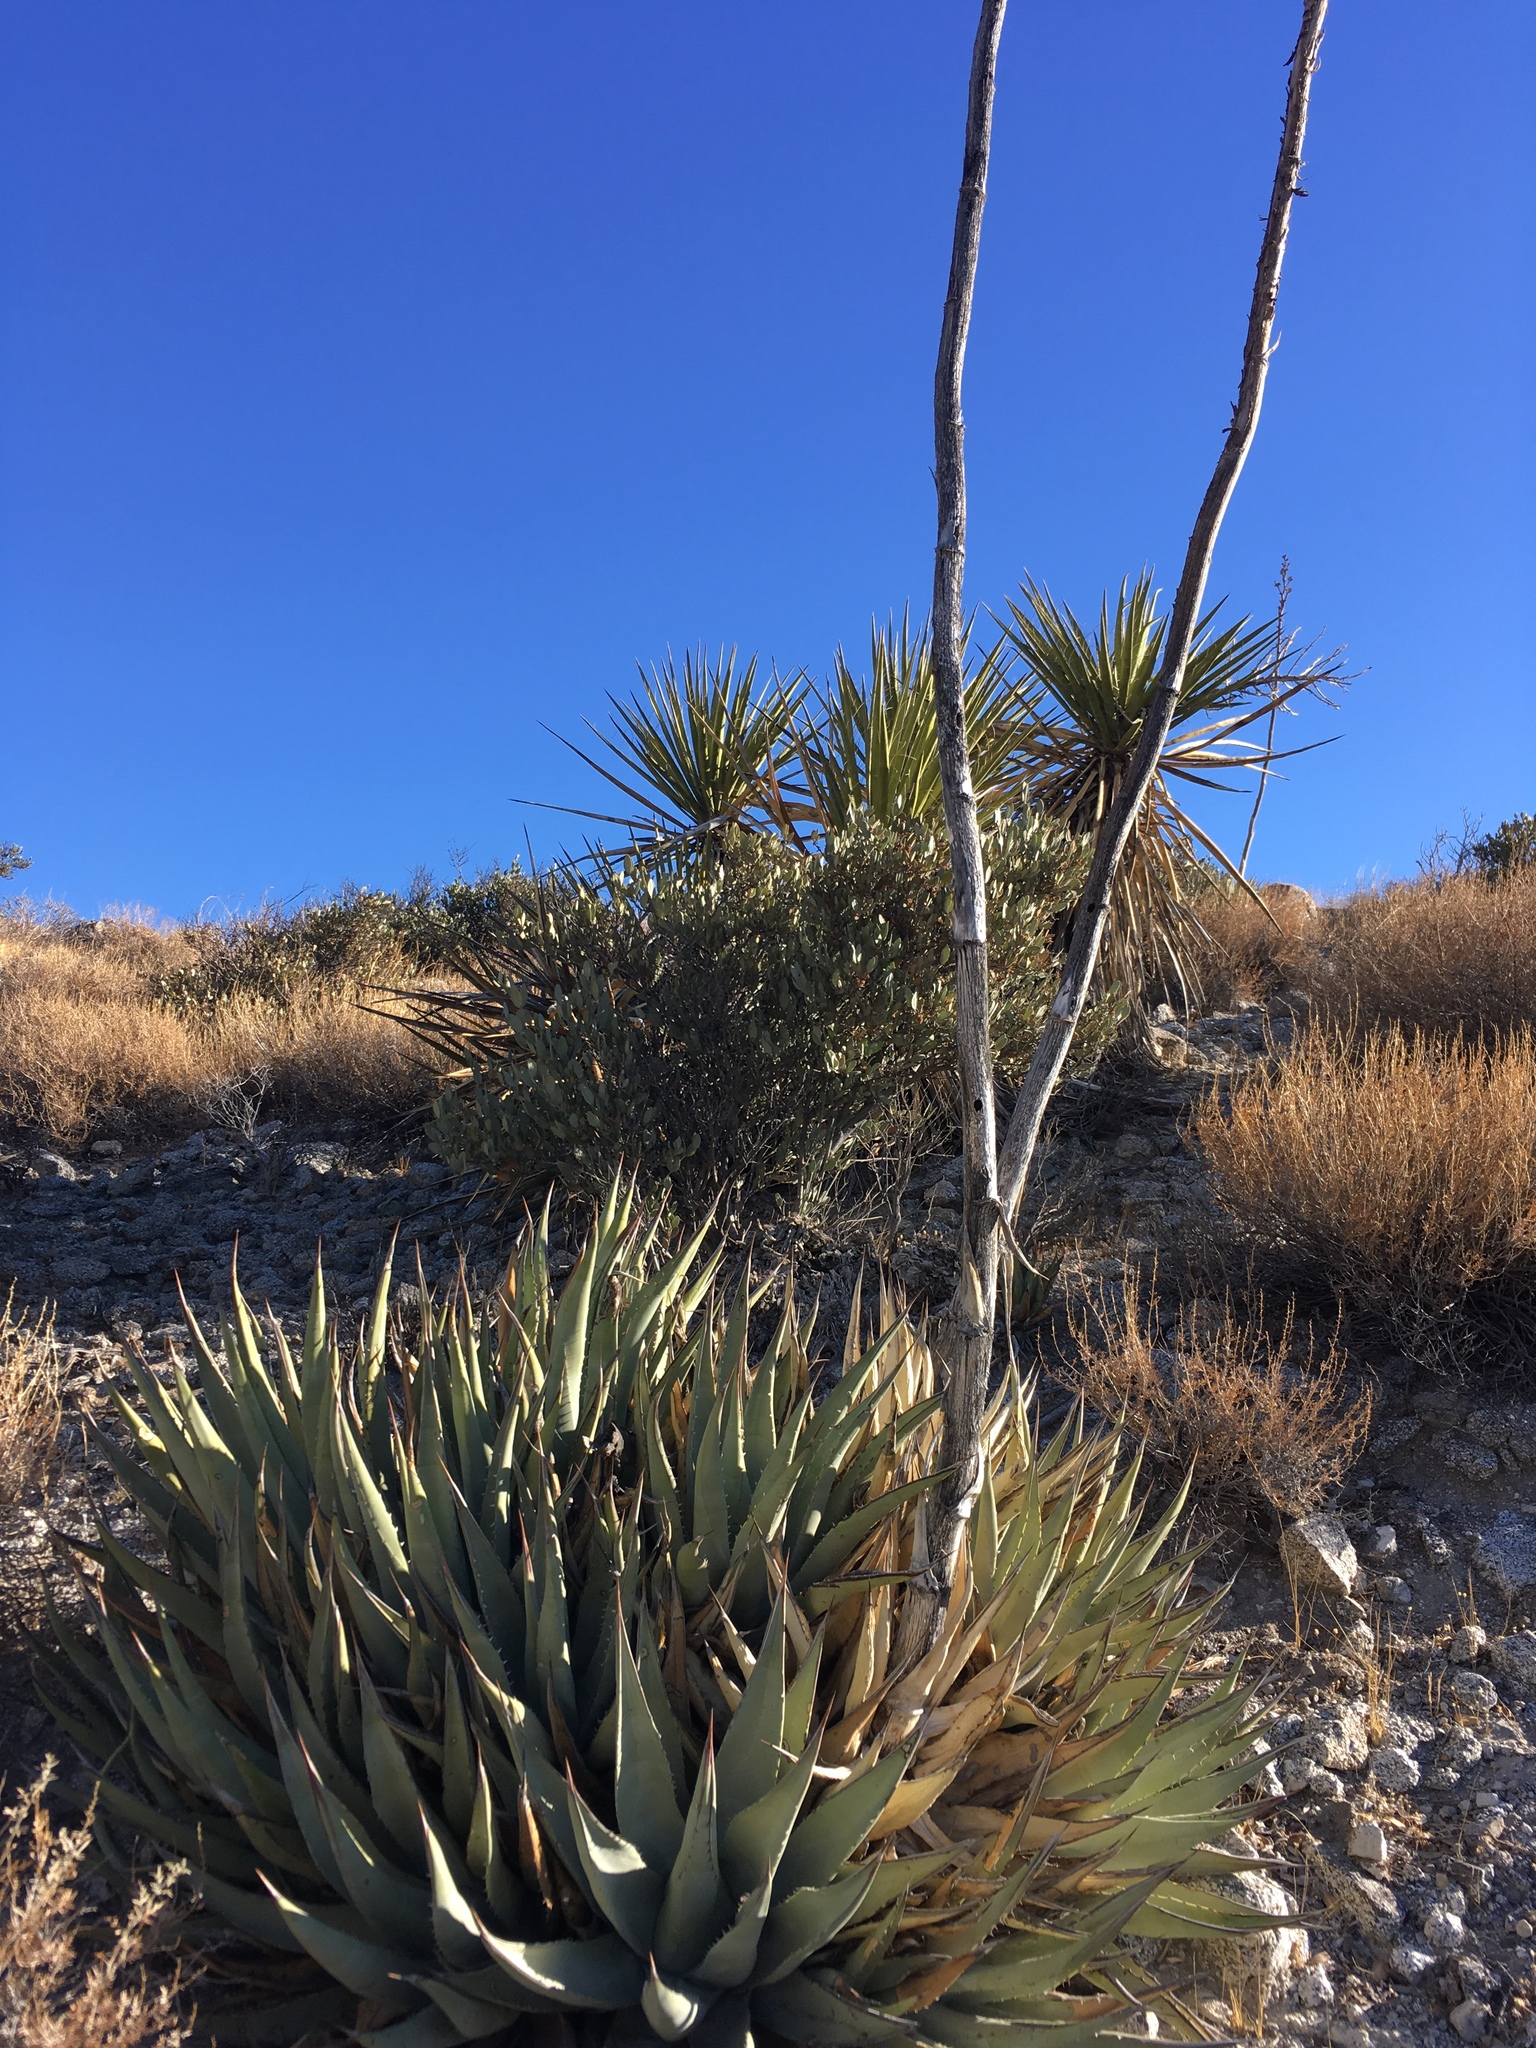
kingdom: Plantae
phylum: Tracheophyta
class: Liliopsida
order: Asparagales
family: Asparagaceae
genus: Agave
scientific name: Agave deserti
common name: Desert agave
